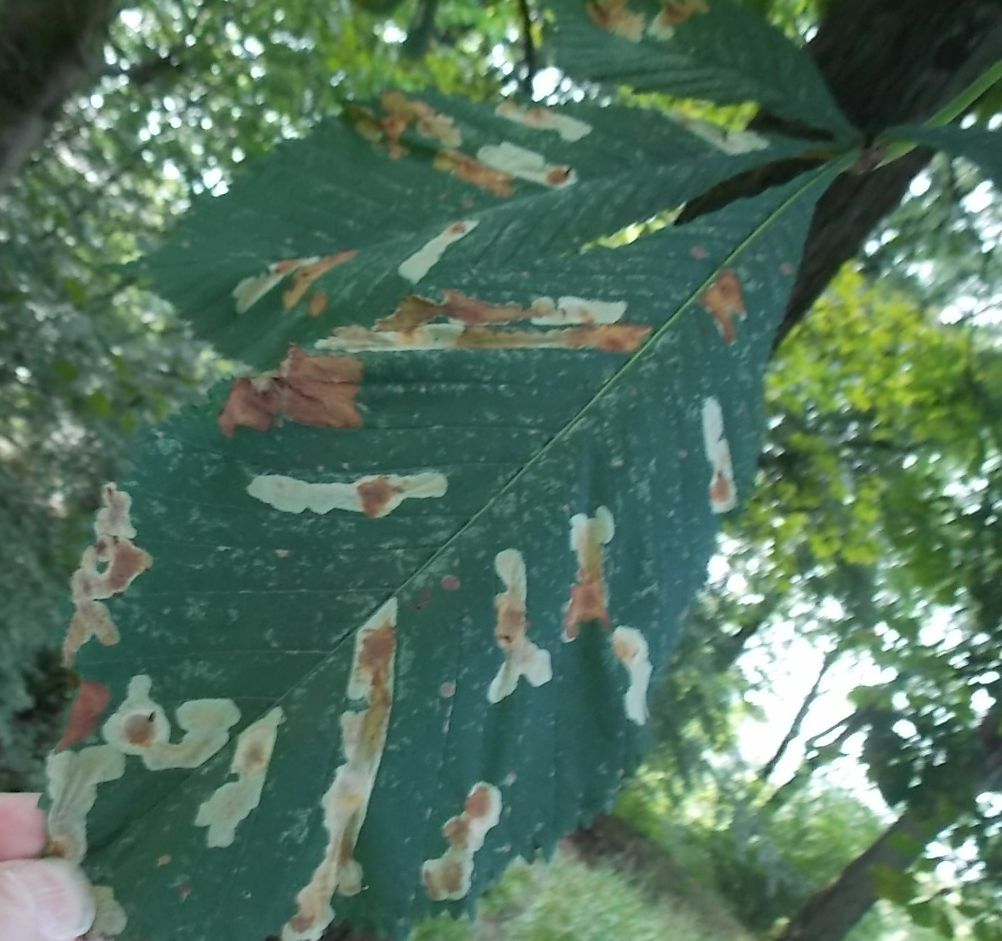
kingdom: Animalia
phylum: Arthropoda
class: Insecta
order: Lepidoptera
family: Gracillariidae
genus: Cameraria
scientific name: Cameraria ohridella
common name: Horse-chestnut leaf-miner
